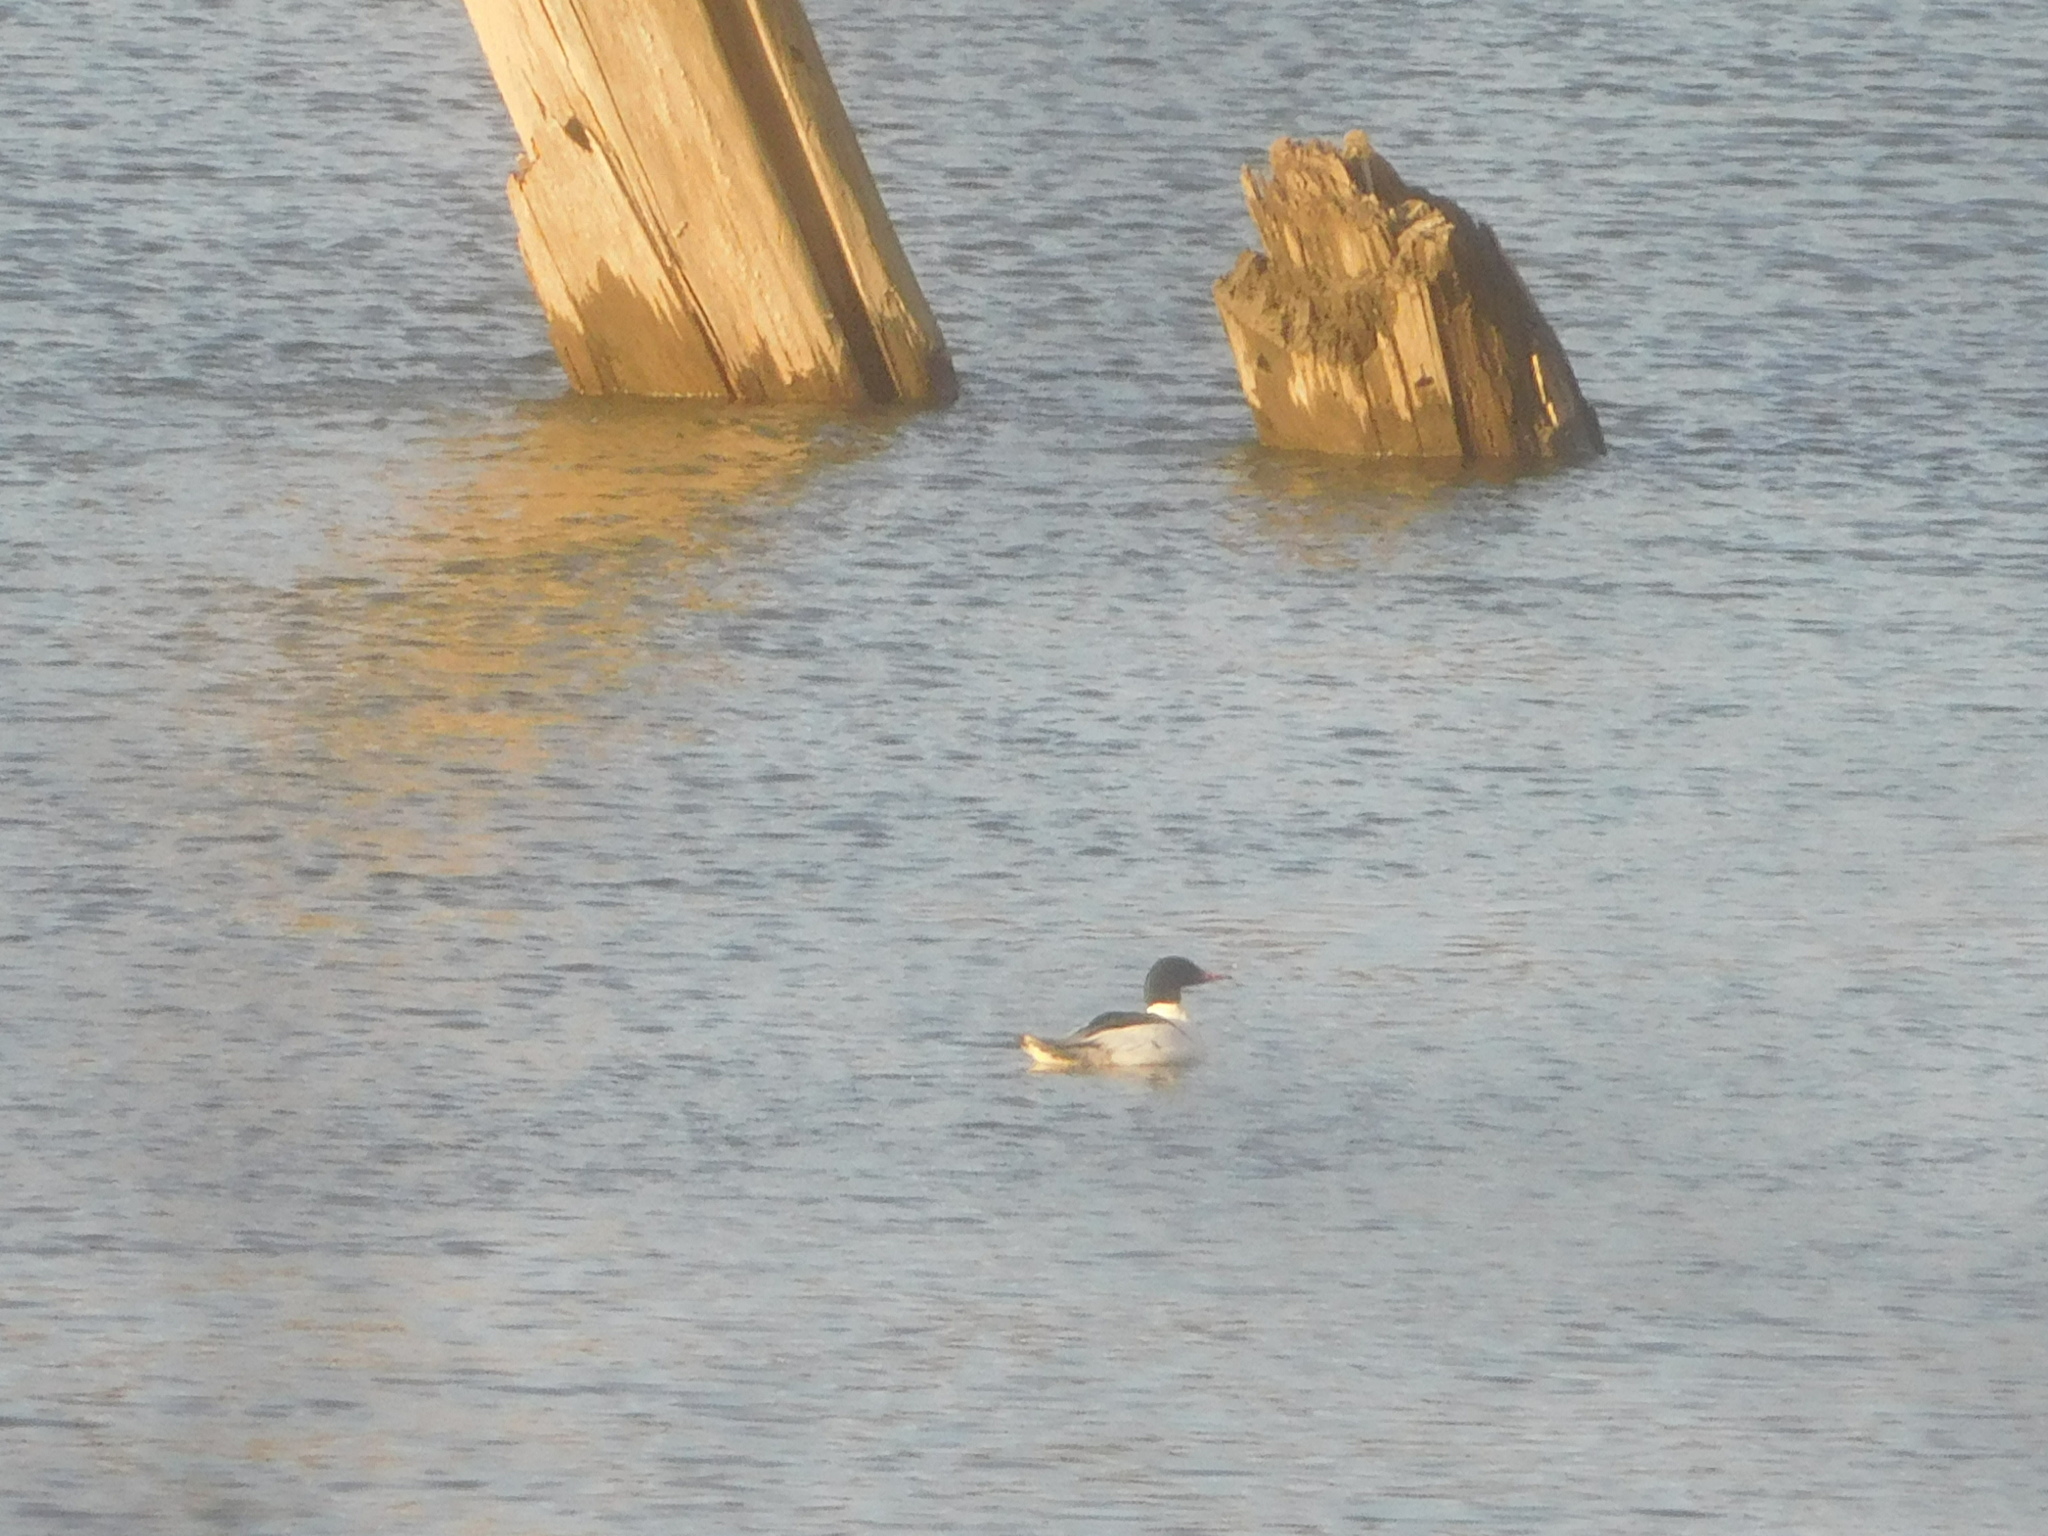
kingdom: Animalia
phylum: Chordata
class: Aves
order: Anseriformes
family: Anatidae
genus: Mergus
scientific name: Mergus merganser
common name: Common merganser
